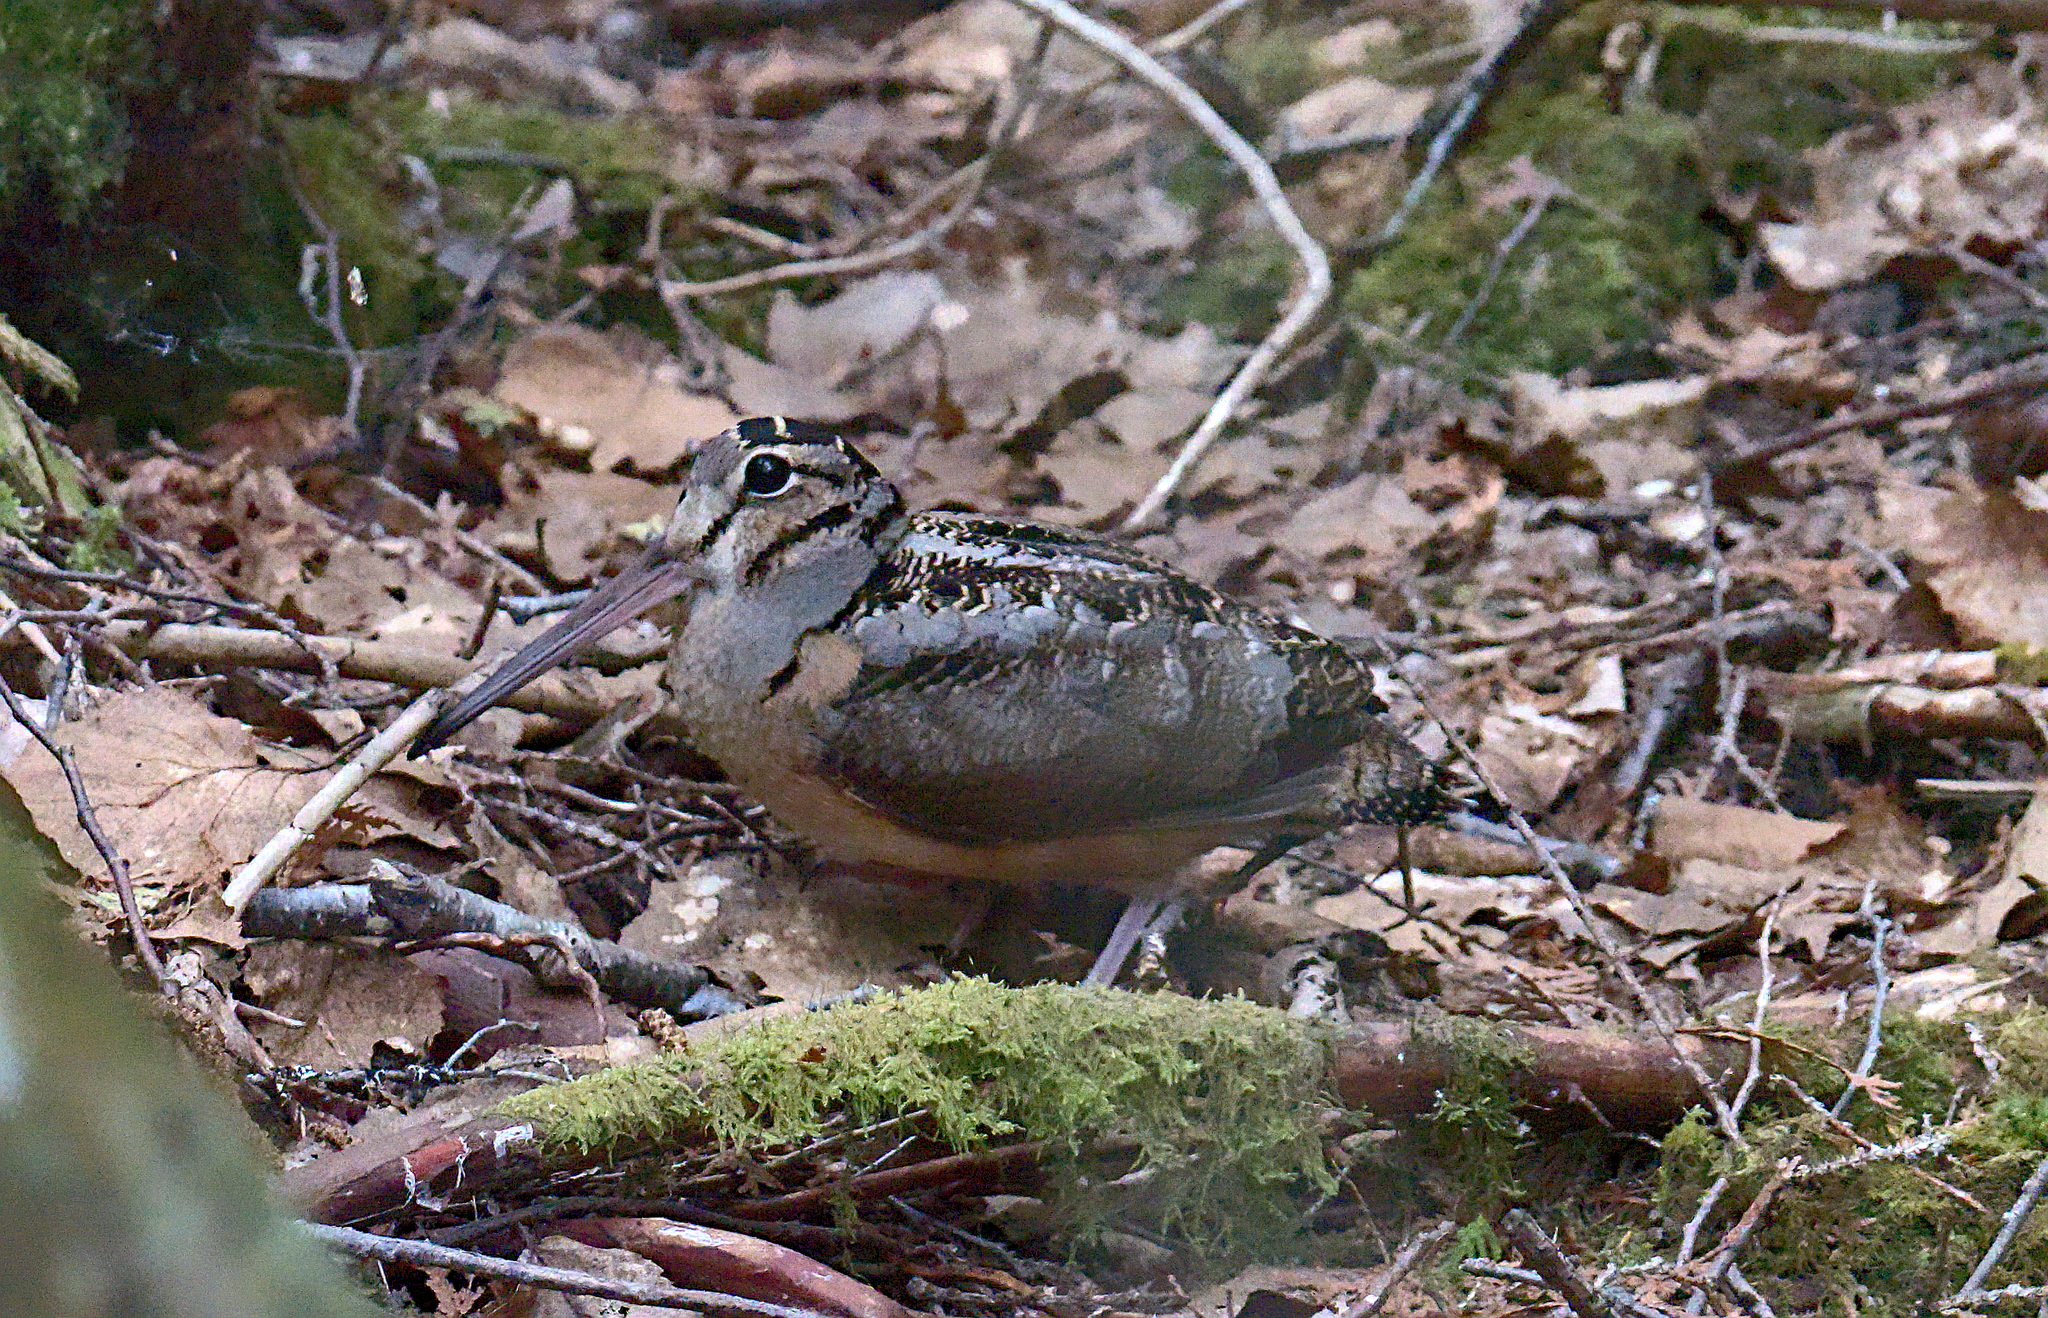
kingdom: Animalia
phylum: Chordata
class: Aves
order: Charadriiformes
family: Scolopacidae
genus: Scolopax
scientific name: Scolopax minor
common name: American woodcock
